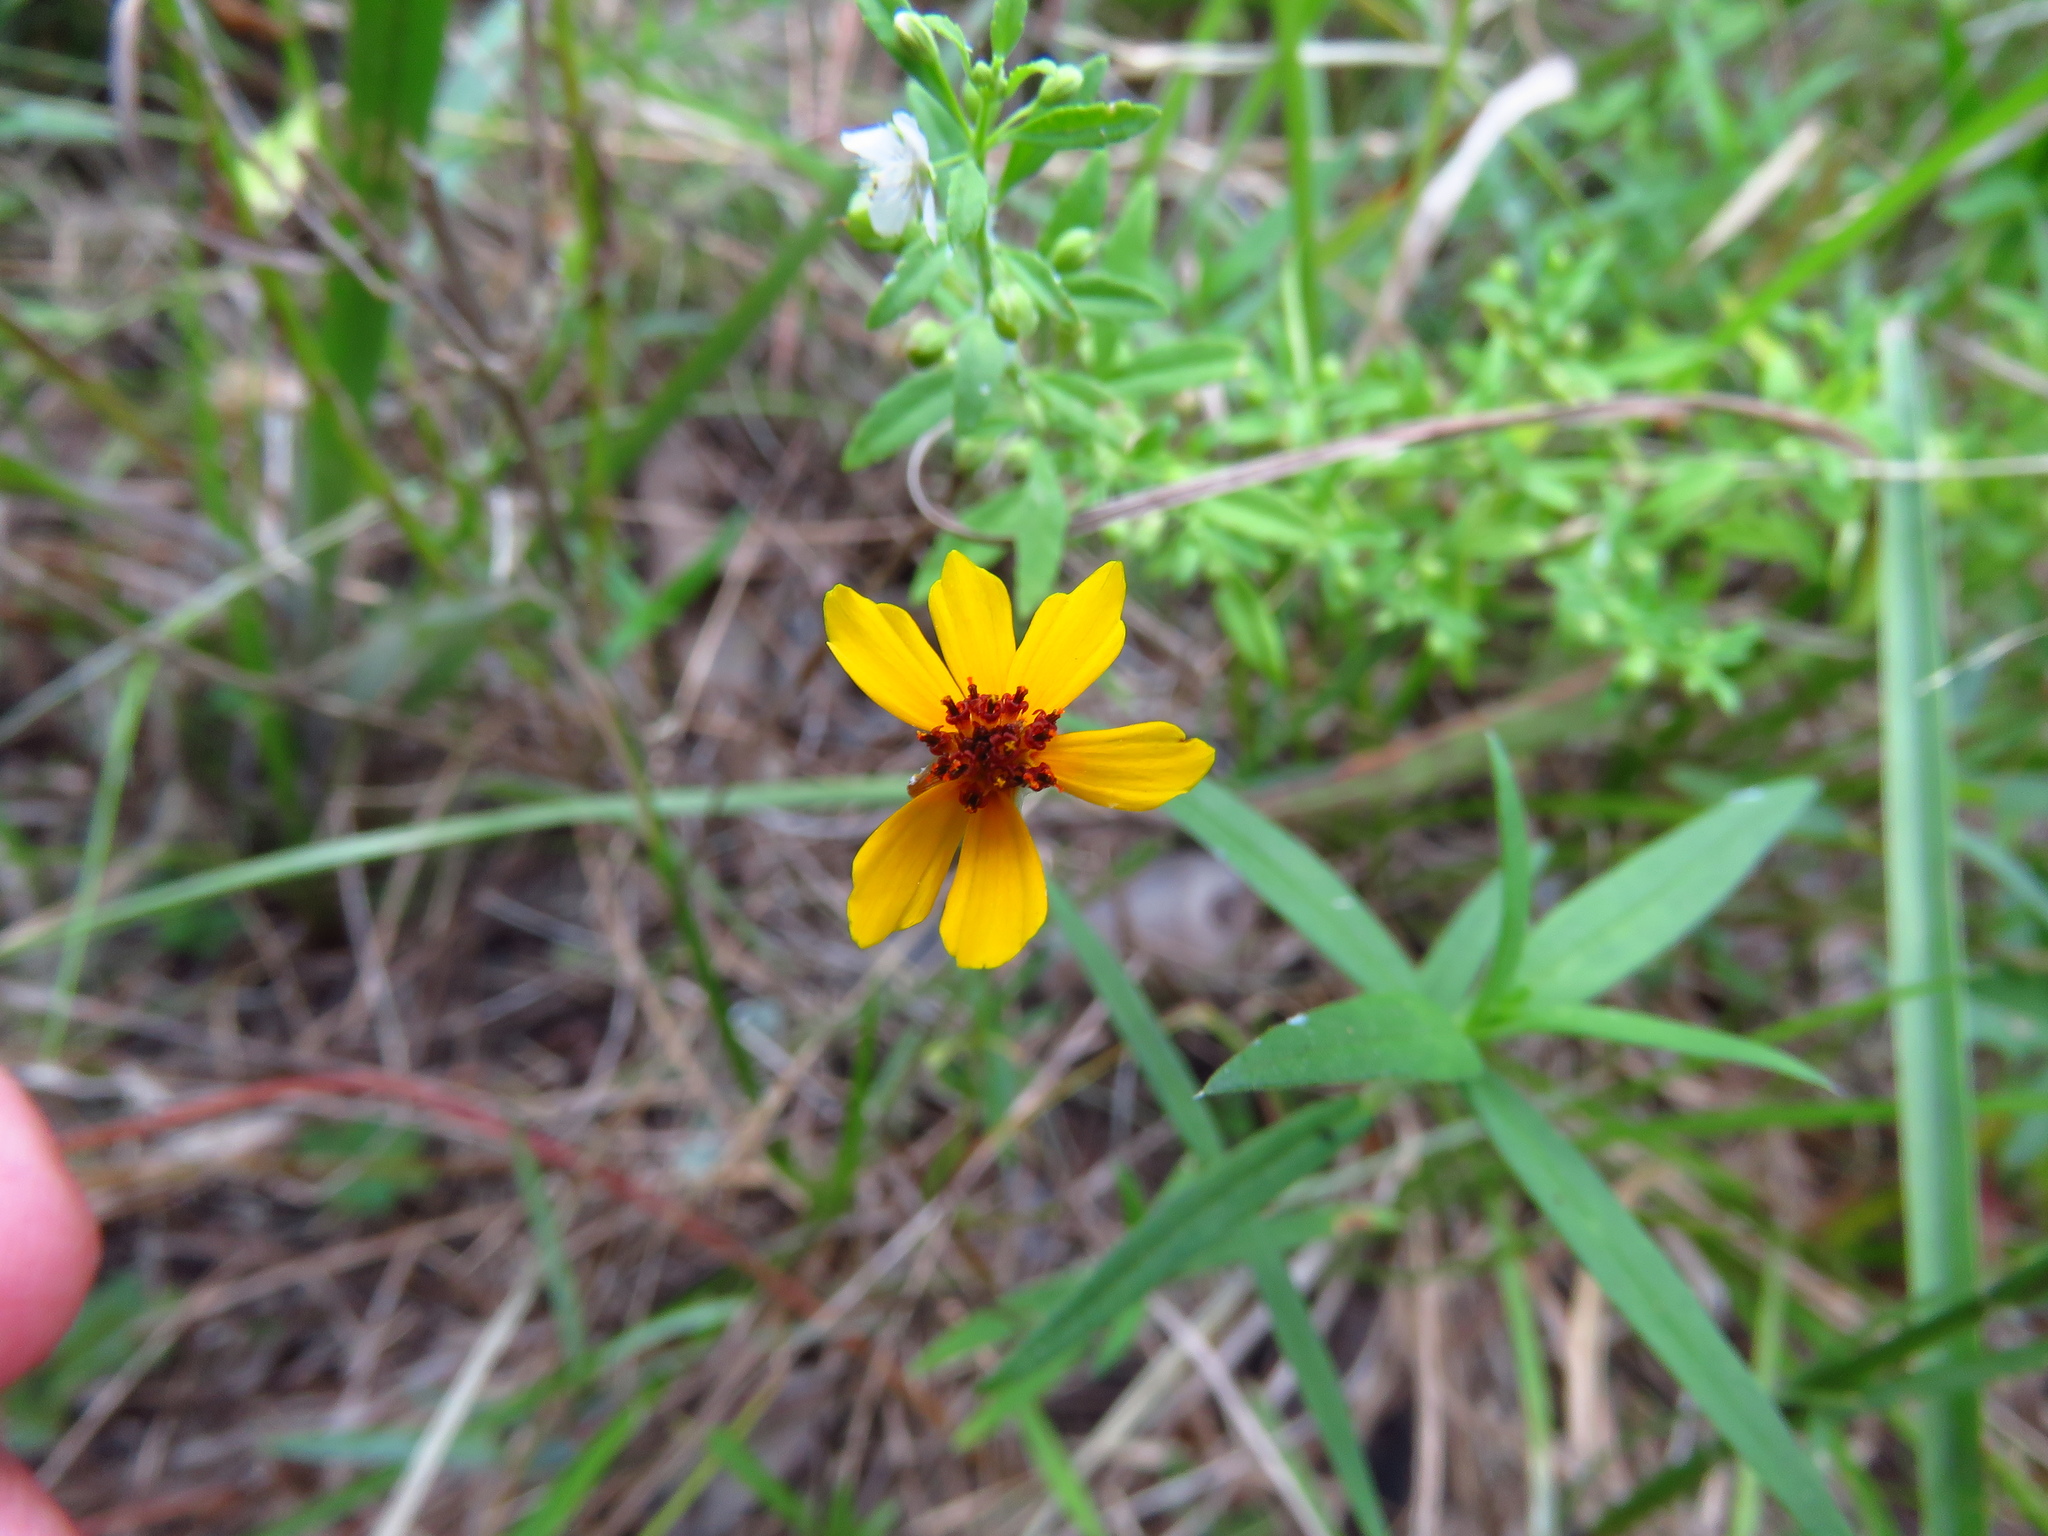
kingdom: Plantae
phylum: Tracheophyta
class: Magnoliopsida
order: Asterales
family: Asteraceae
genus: Thelesperma
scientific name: Thelesperma filifolium
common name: Stiff greenthread
